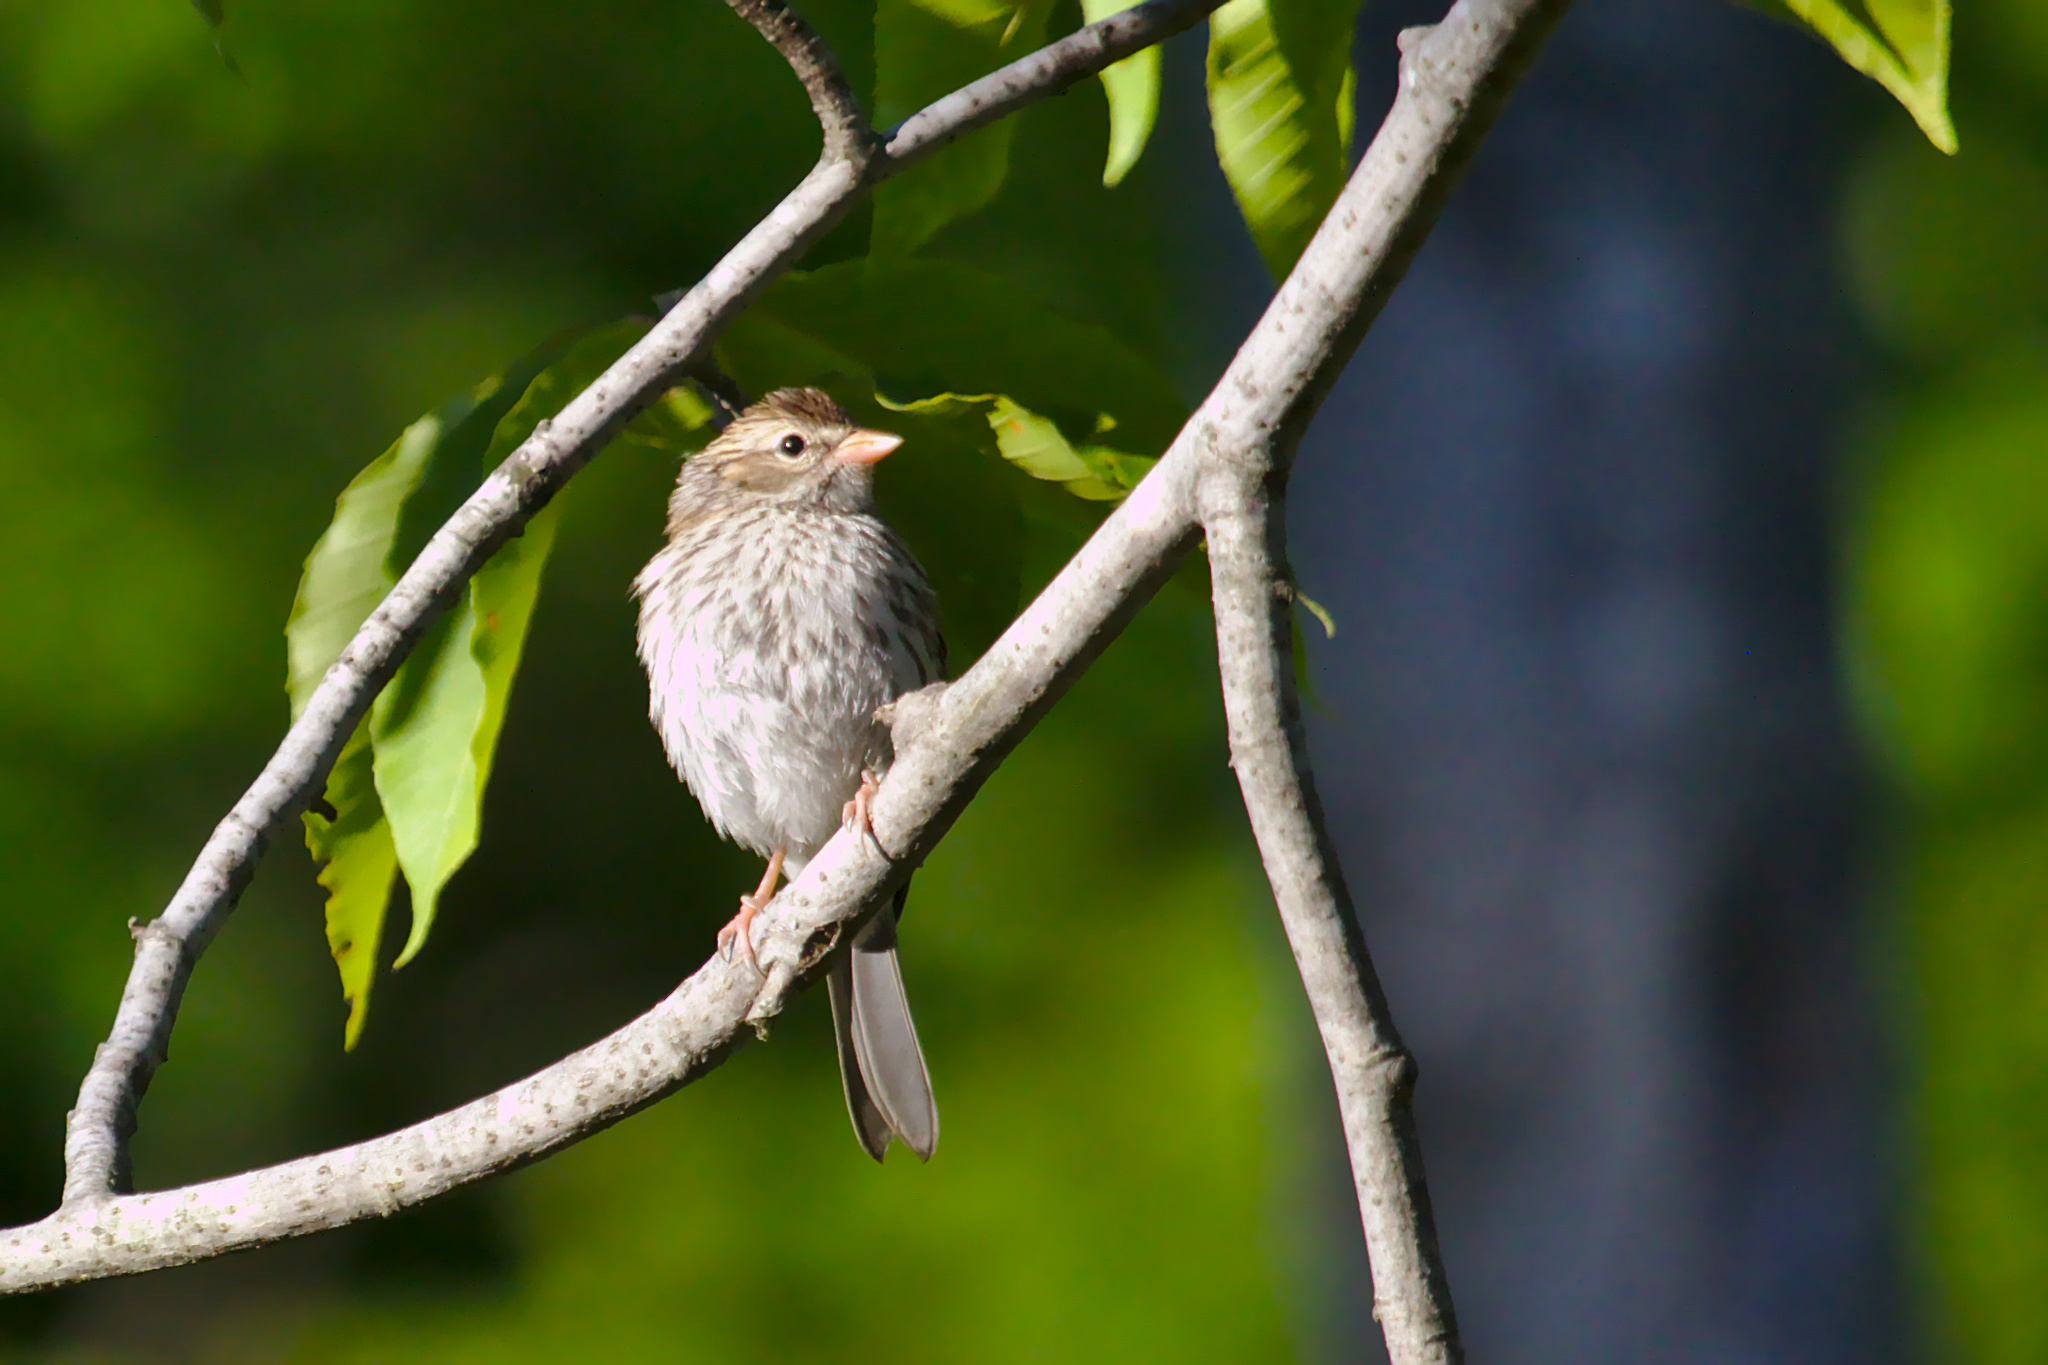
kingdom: Animalia
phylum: Chordata
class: Aves
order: Passeriformes
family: Passerellidae
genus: Spizella
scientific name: Spizella passerina
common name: Chipping sparrow
